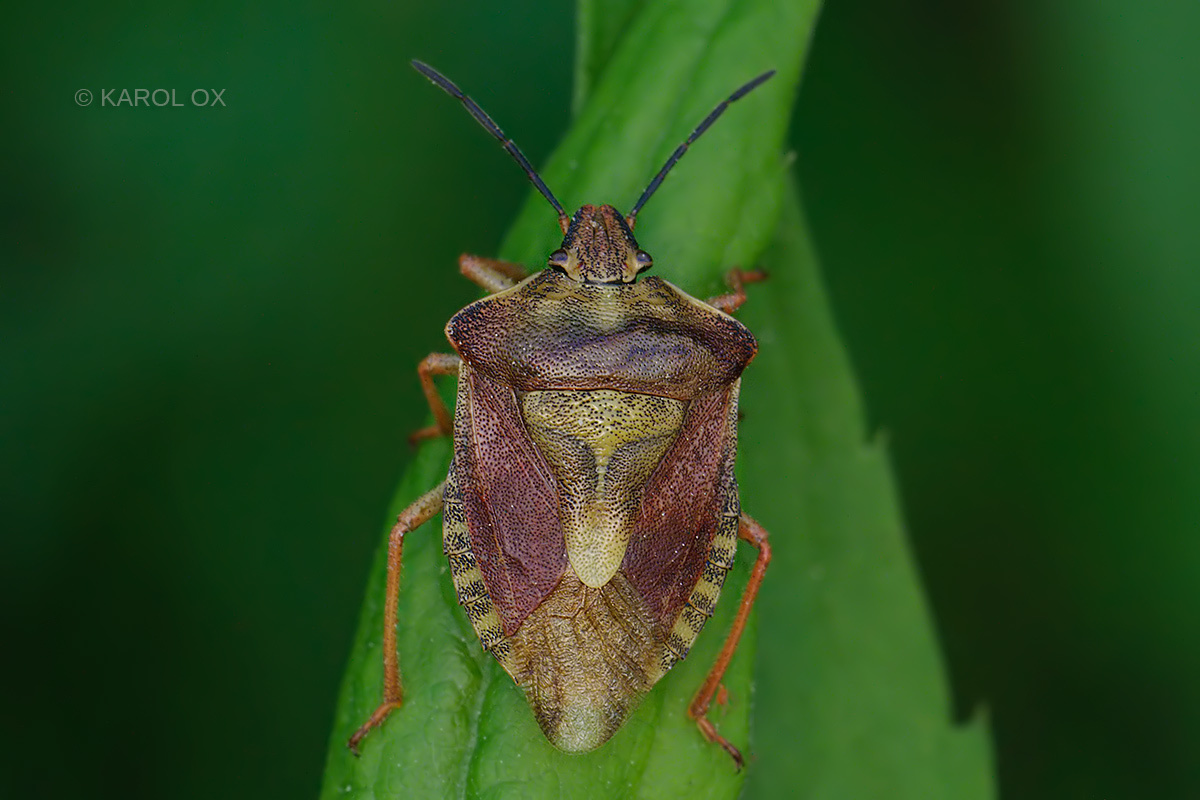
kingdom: Animalia
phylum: Arthropoda
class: Insecta
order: Hemiptera
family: Pentatomidae
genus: Carpocoris
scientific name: Carpocoris purpureipennis
